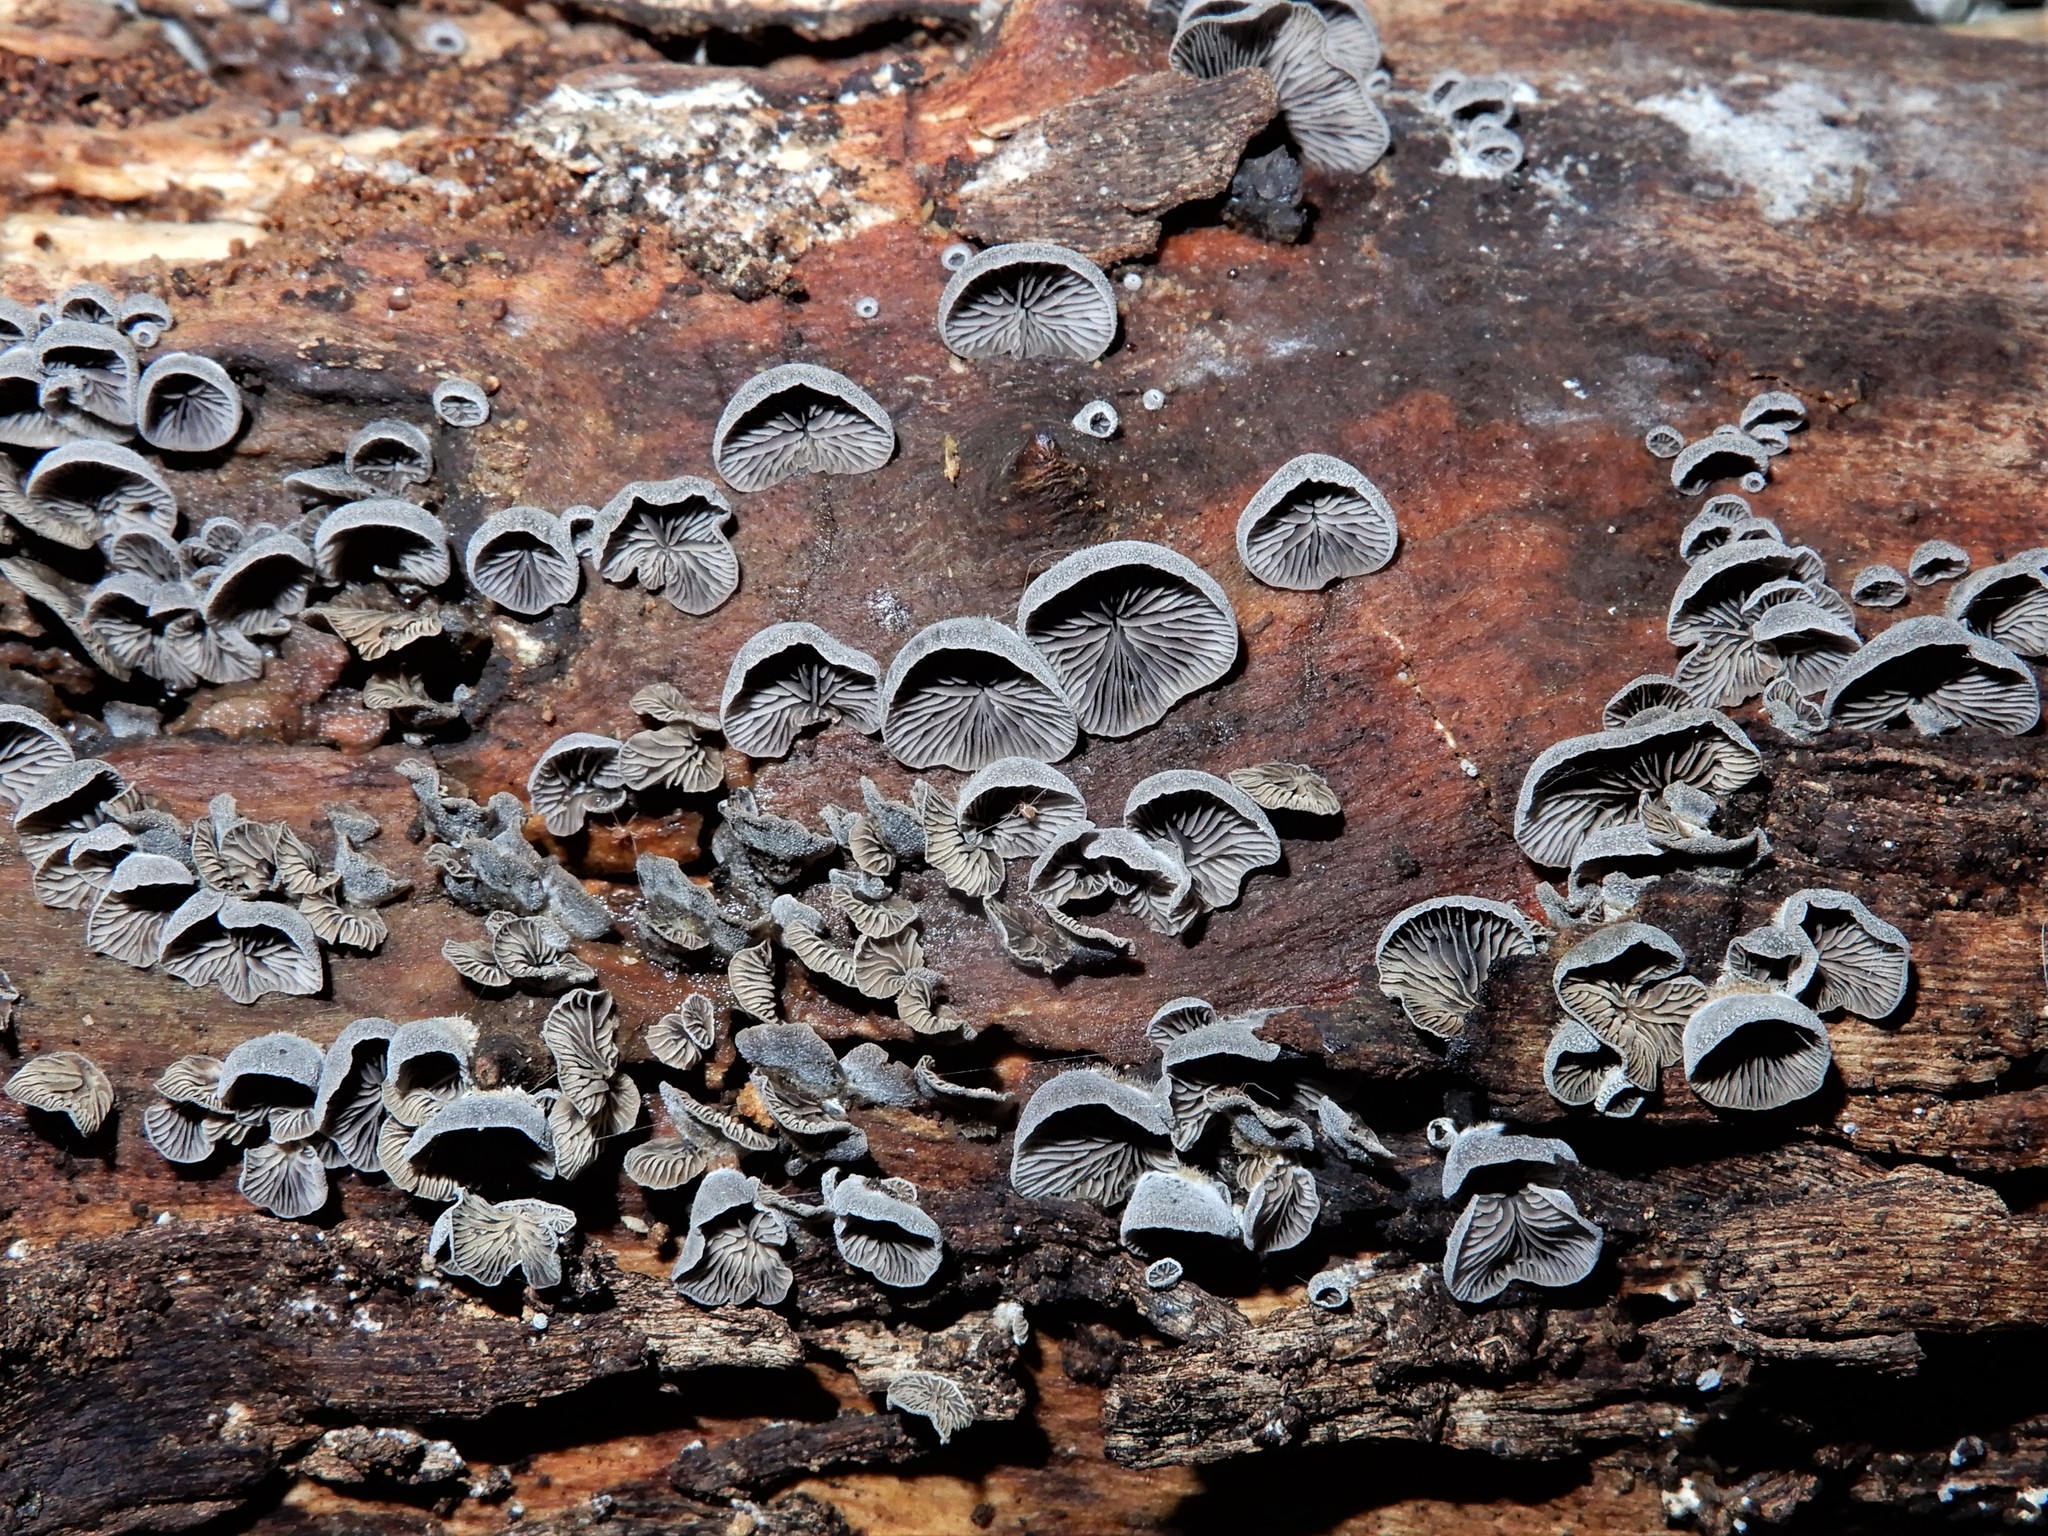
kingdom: Fungi
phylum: Basidiomycota
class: Agaricomycetes
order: Agaricales
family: Omphalotaceae
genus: Marasmiellus
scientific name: Marasmiellus violaceogriseus
